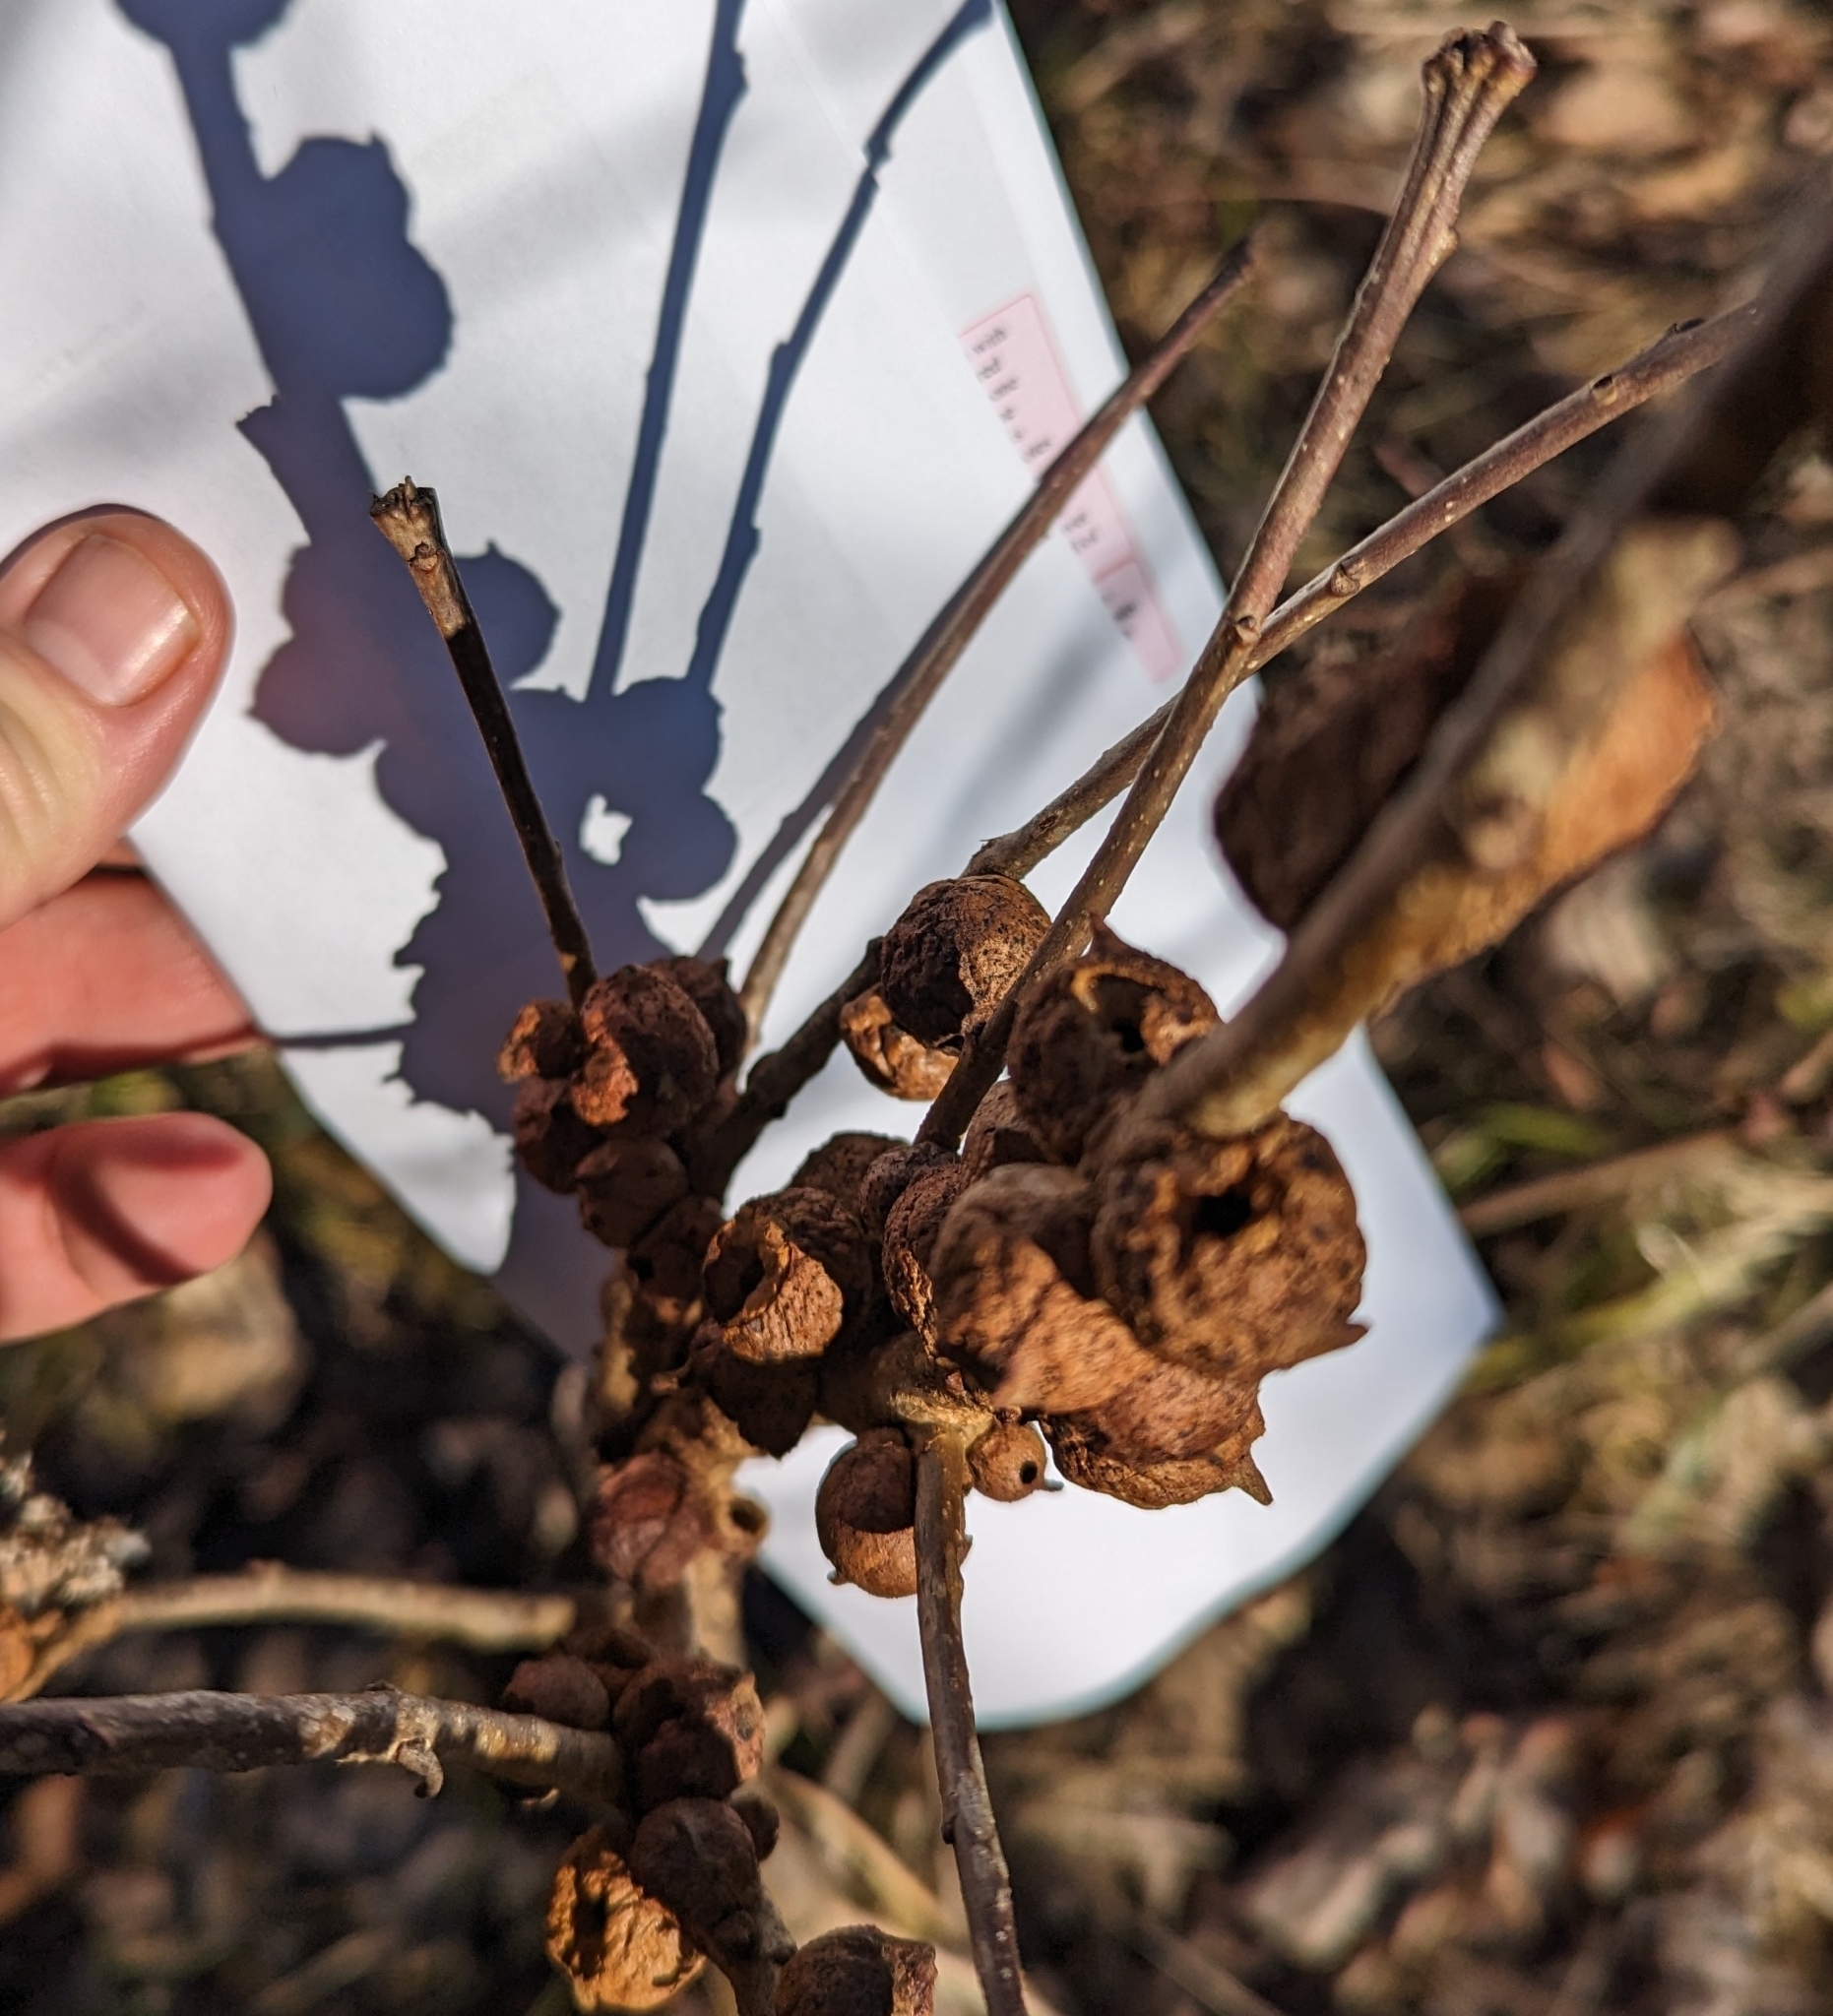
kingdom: Animalia
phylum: Arthropoda
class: Insecta
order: Hymenoptera
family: Cynipidae
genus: Disholcaspis
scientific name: Disholcaspis
